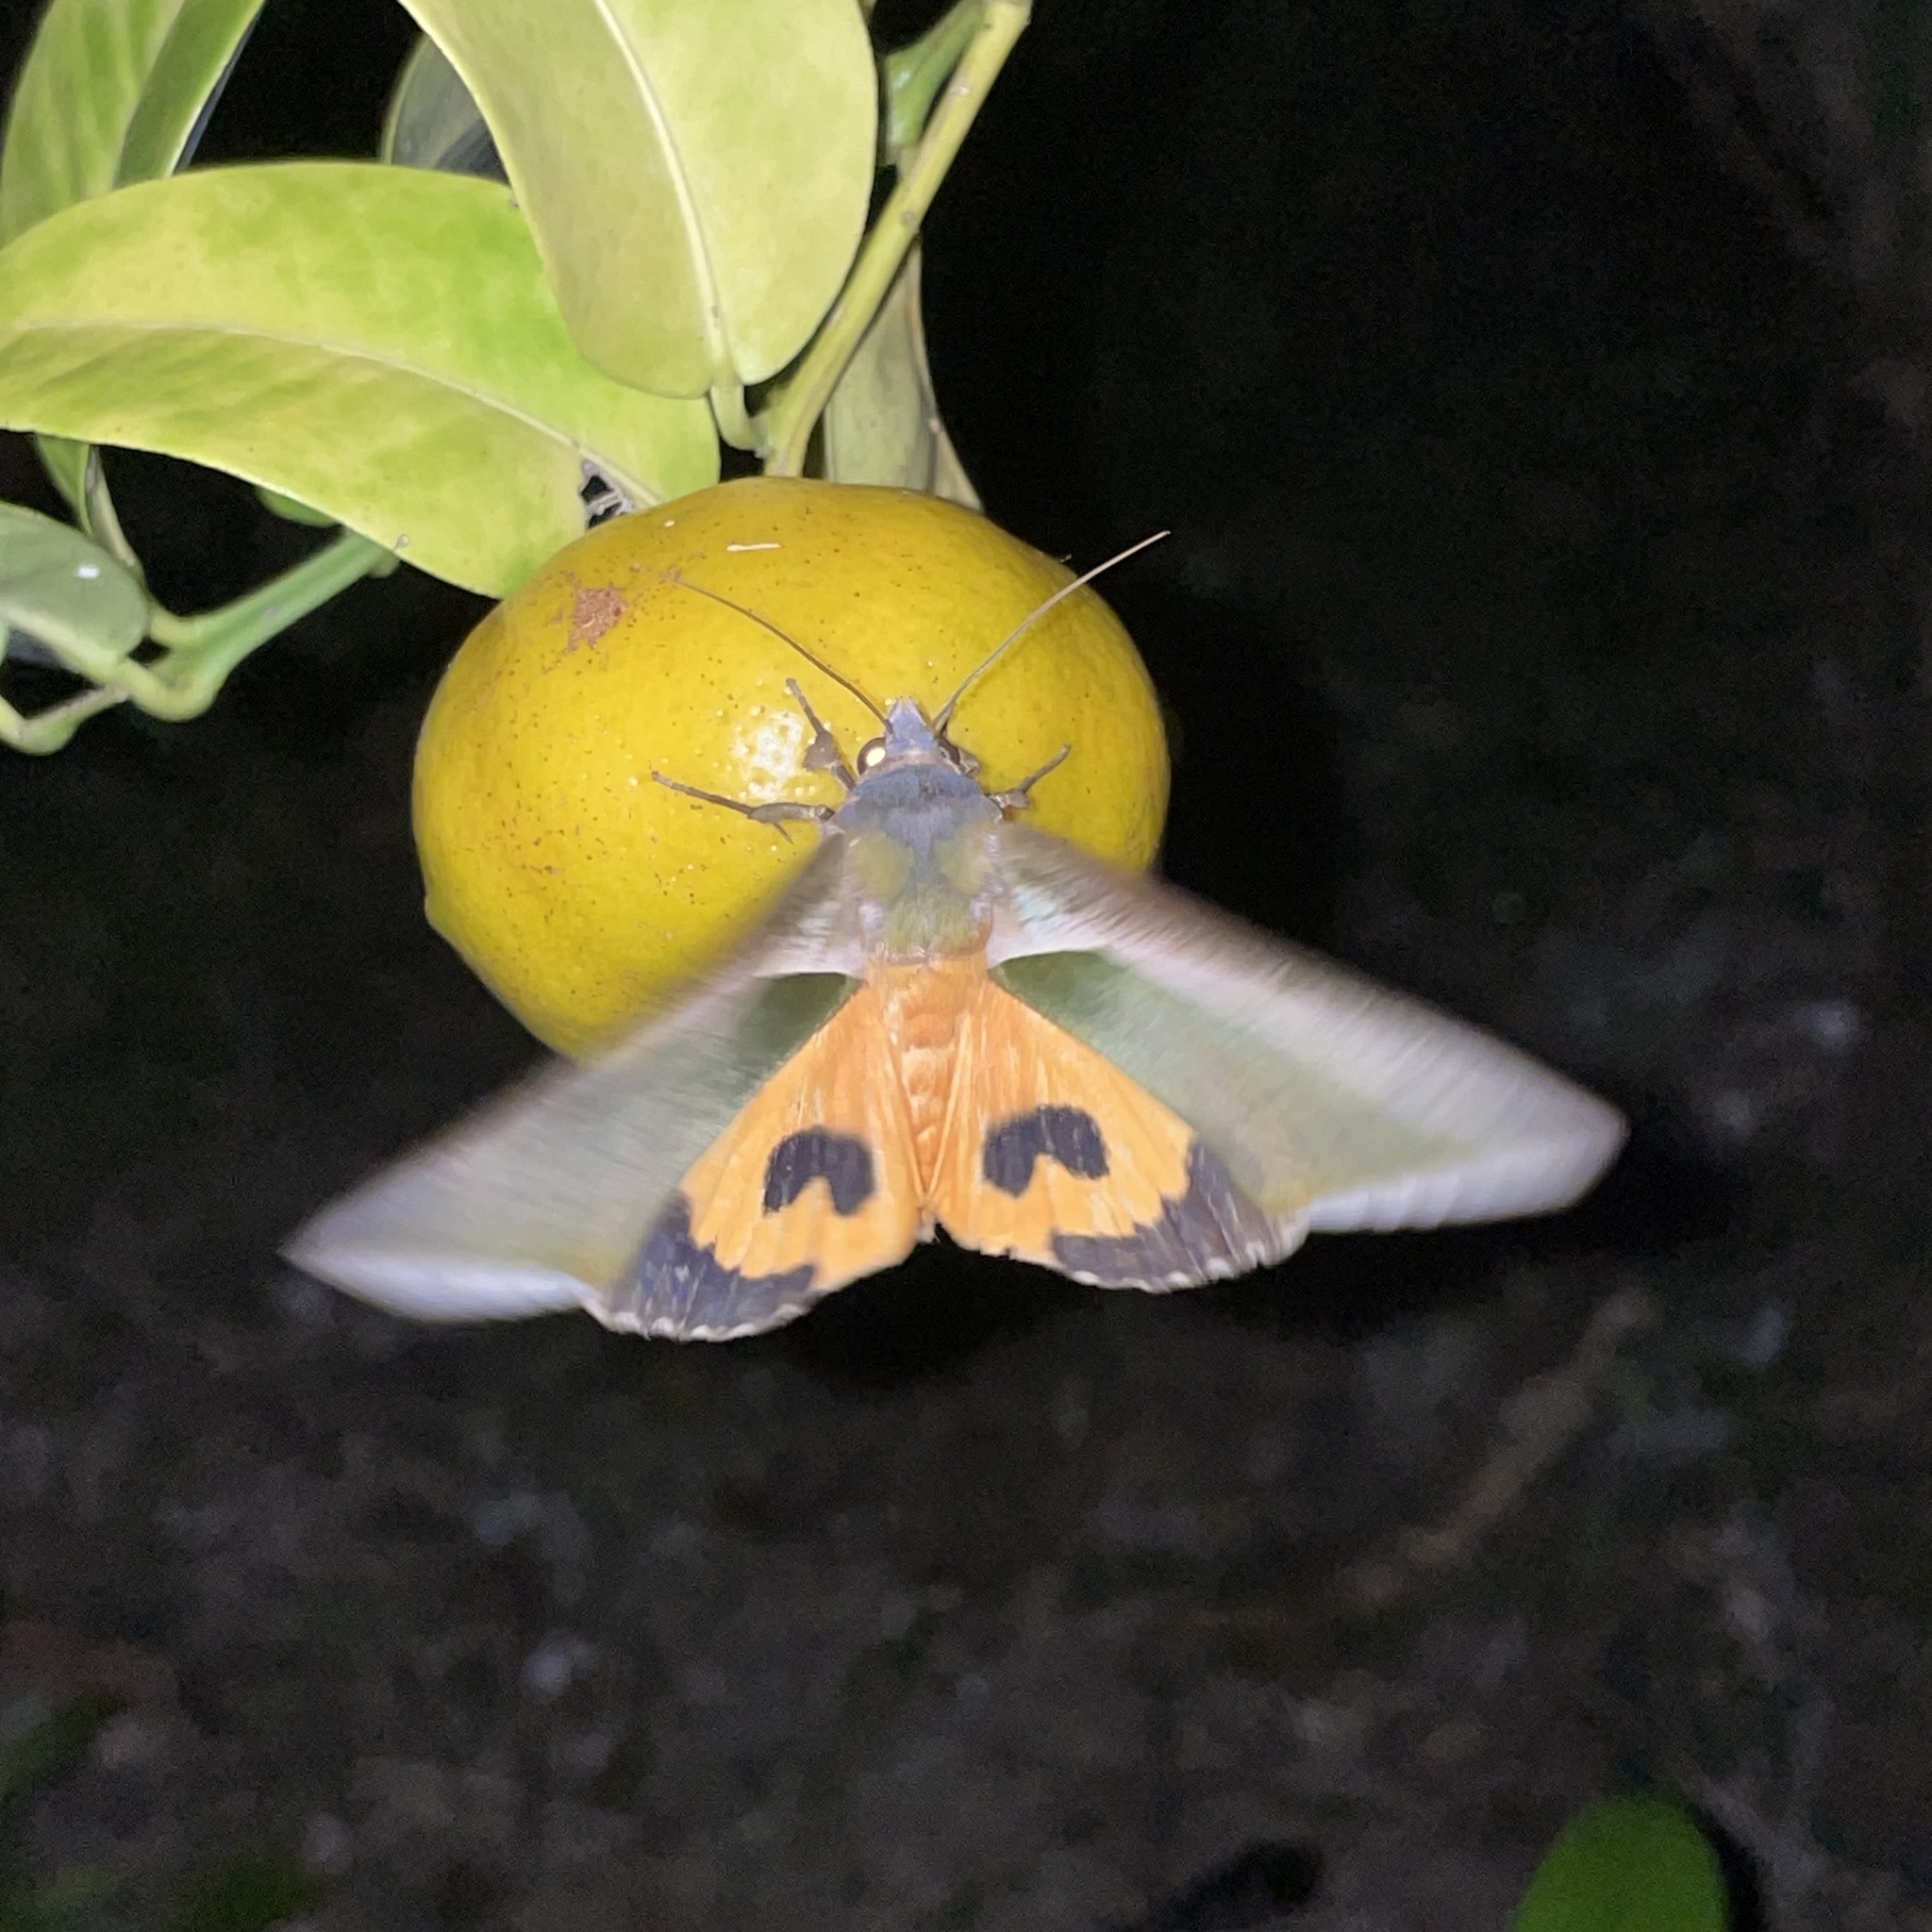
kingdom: Animalia
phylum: Arthropoda
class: Insecta
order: Lepidoptera
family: Erebidae
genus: Eudocima
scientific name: Eudocima salaminia
